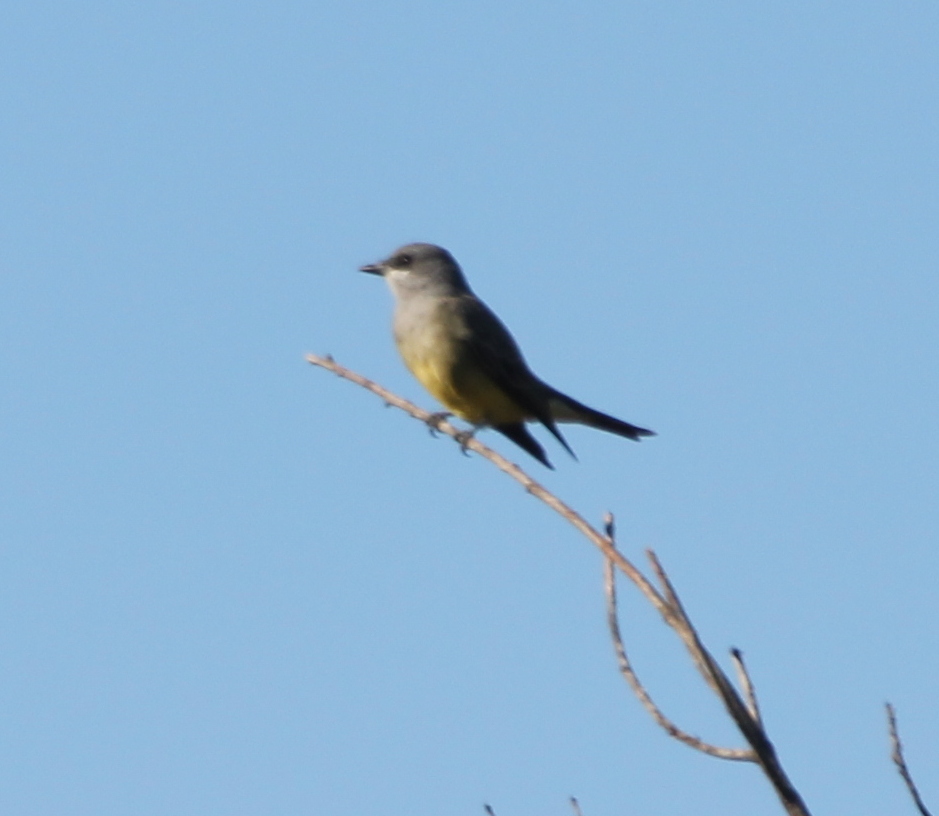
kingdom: Animalia
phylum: Chordata
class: Aves
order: Passeriformes
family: Tyrannidae
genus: Tyrannus
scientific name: Tyrannus vociferans
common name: Cassin's kingbird
